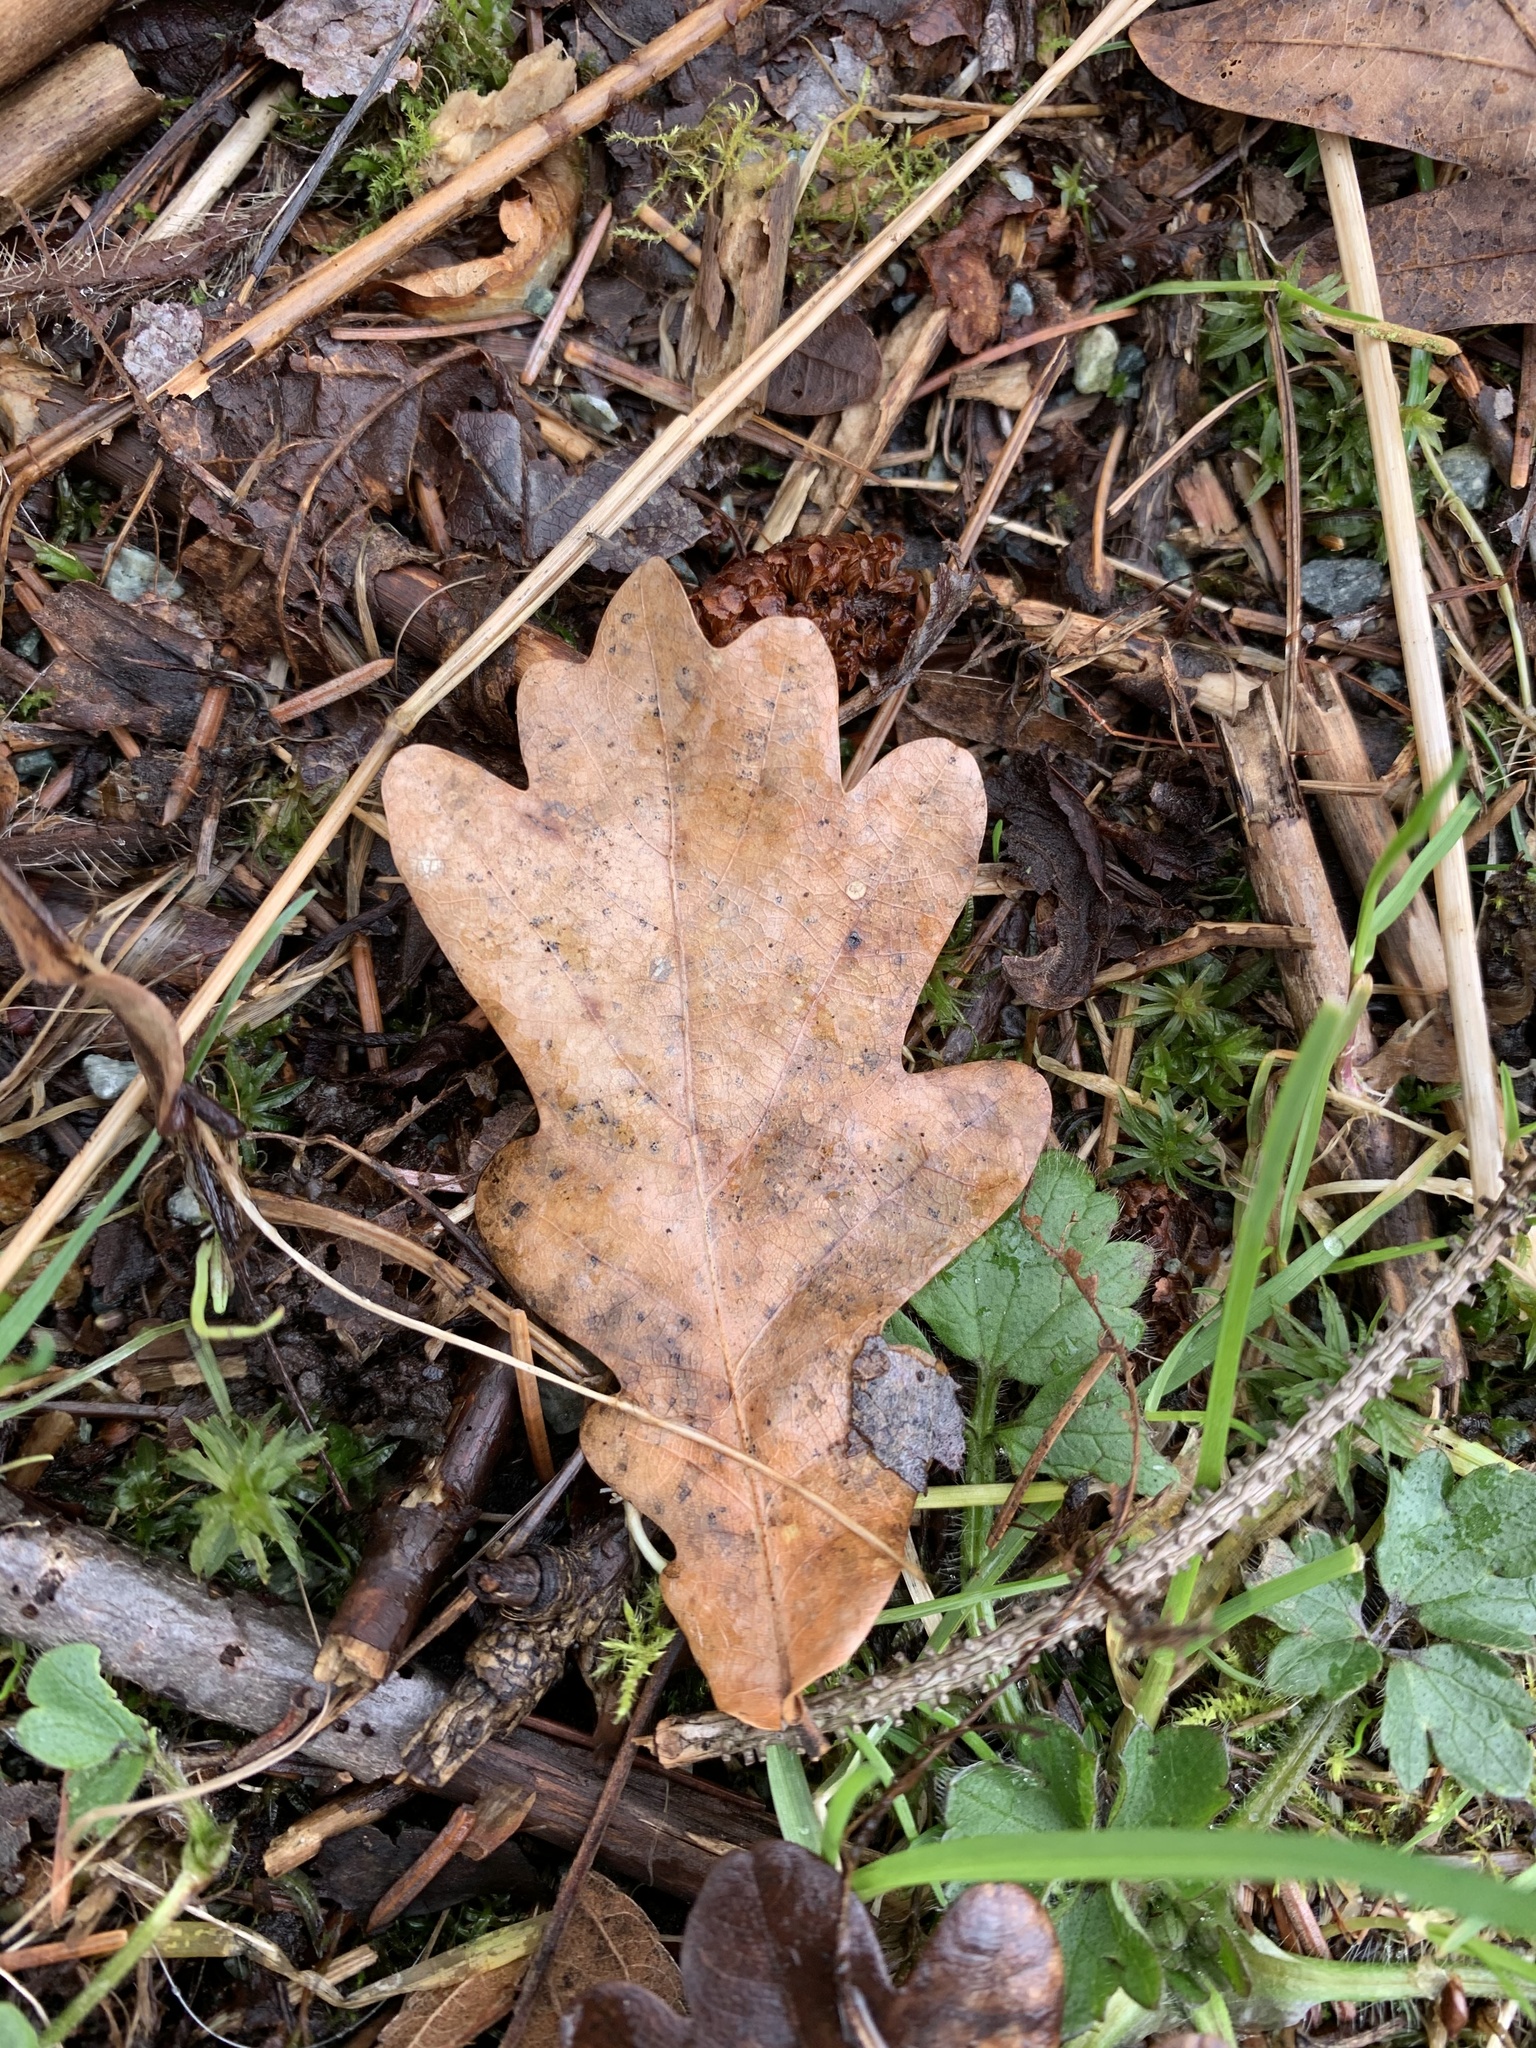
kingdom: Plantae
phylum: Tracheophyta
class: Magnoliopsida
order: Fagales
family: Fagaceae
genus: Quercus
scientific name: Quercus robur
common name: Pedunculate oak
